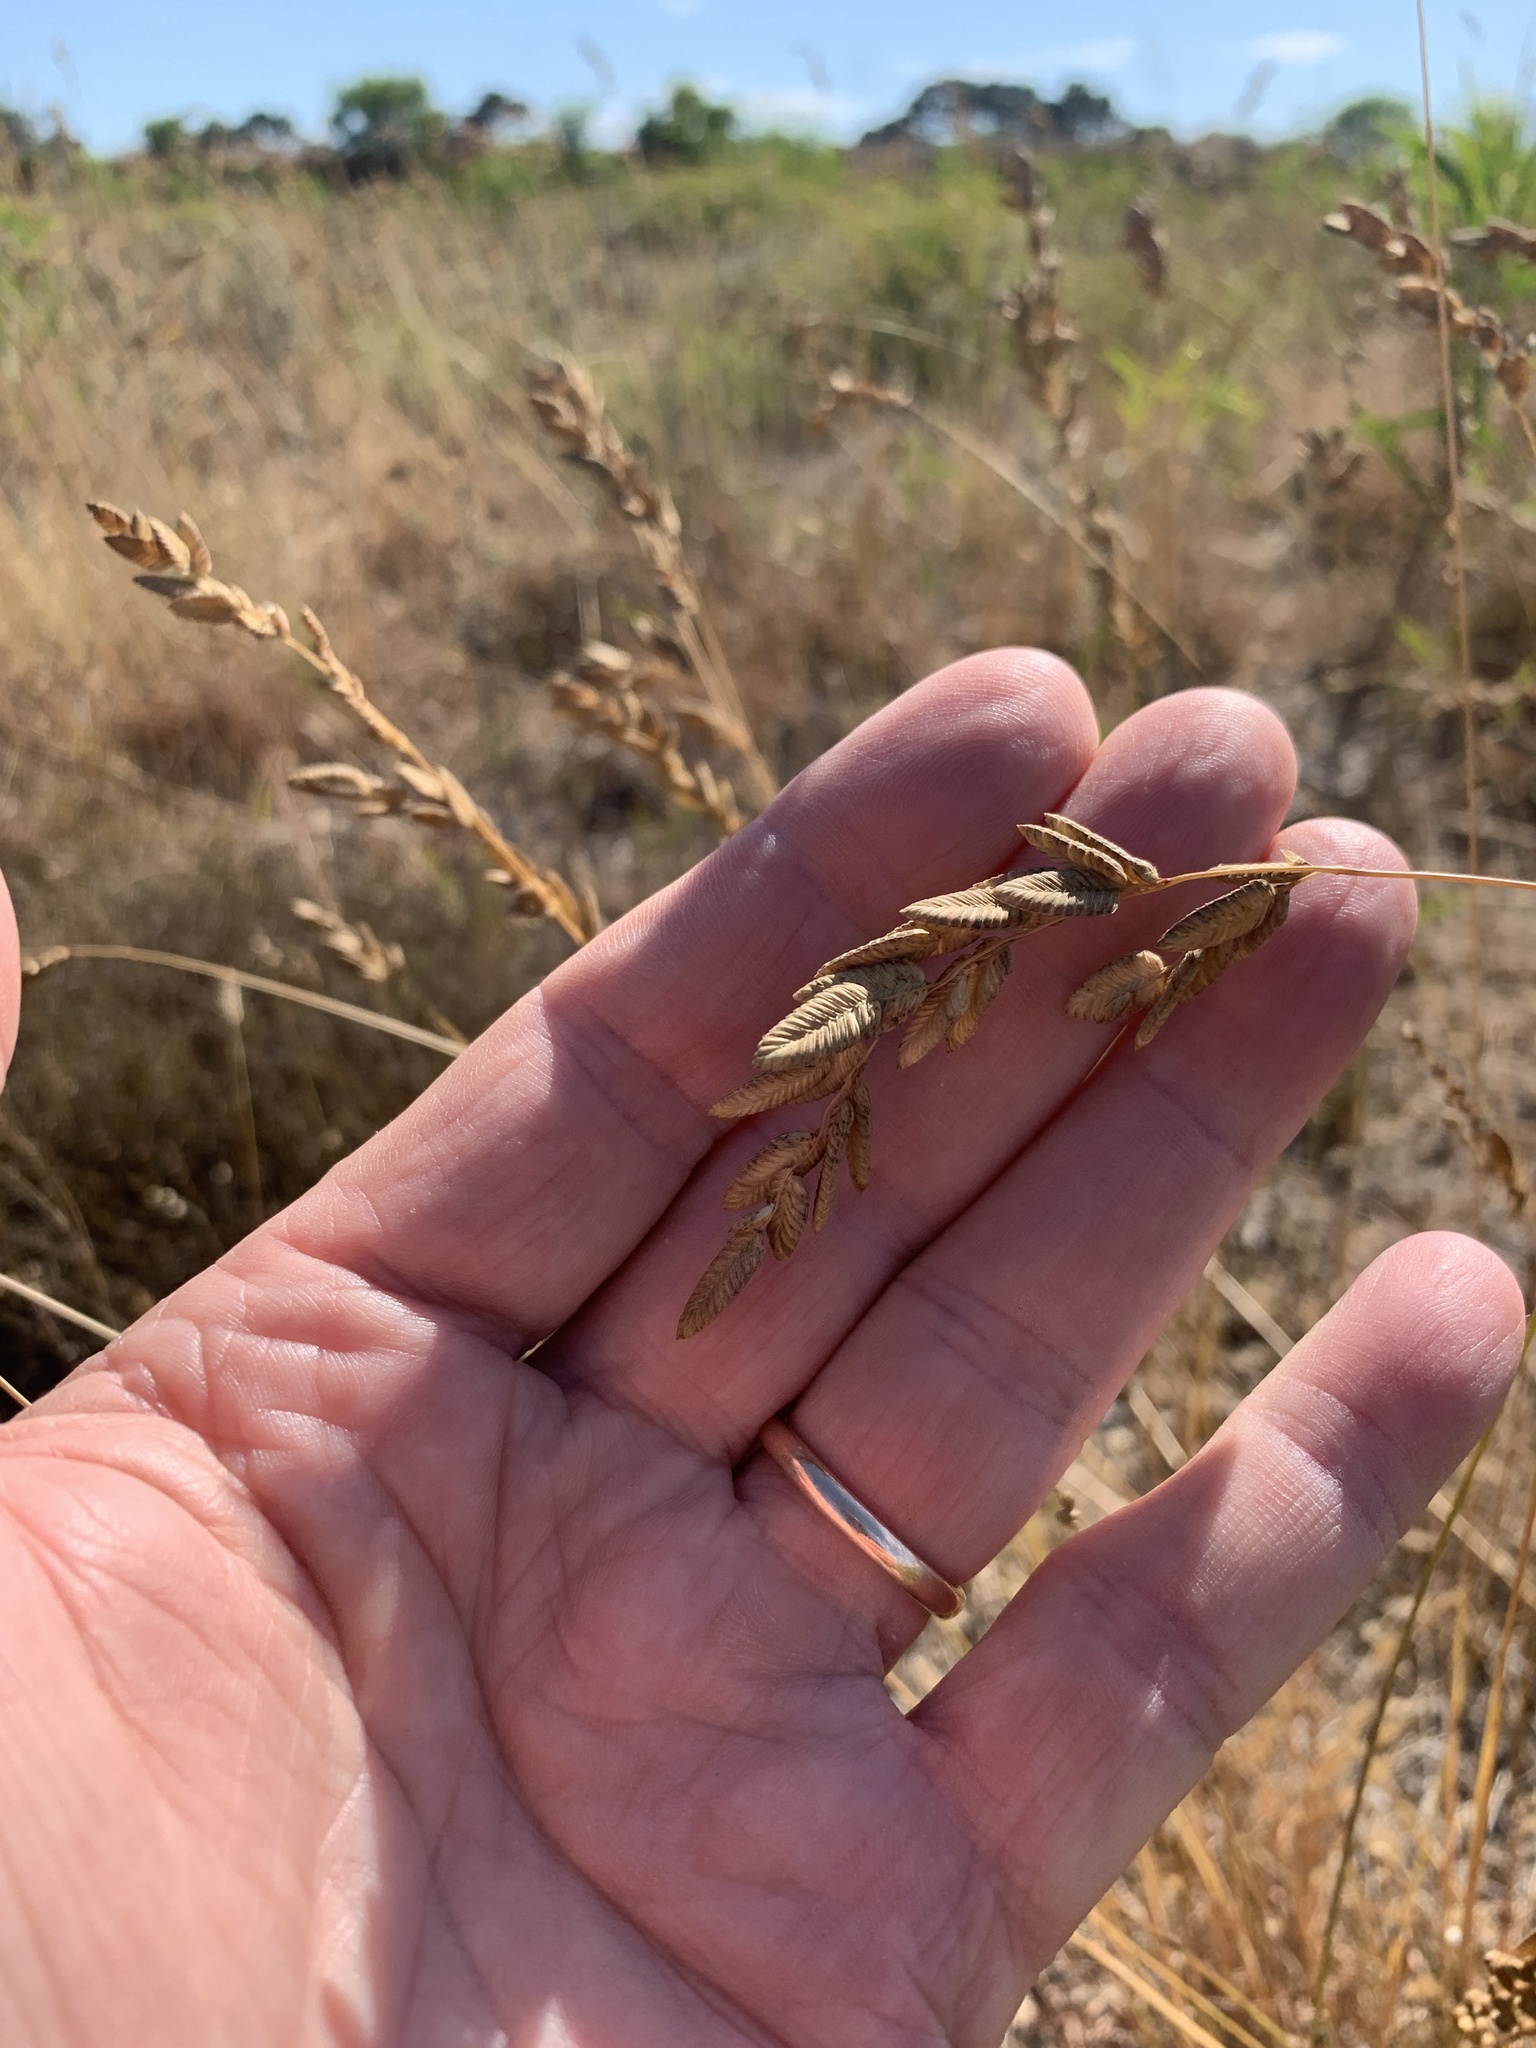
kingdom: Plantae
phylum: Tracheophyta
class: Liliopsida
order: Poales
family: Poaceae
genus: Eragrostis
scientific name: Eragrostis capensis
